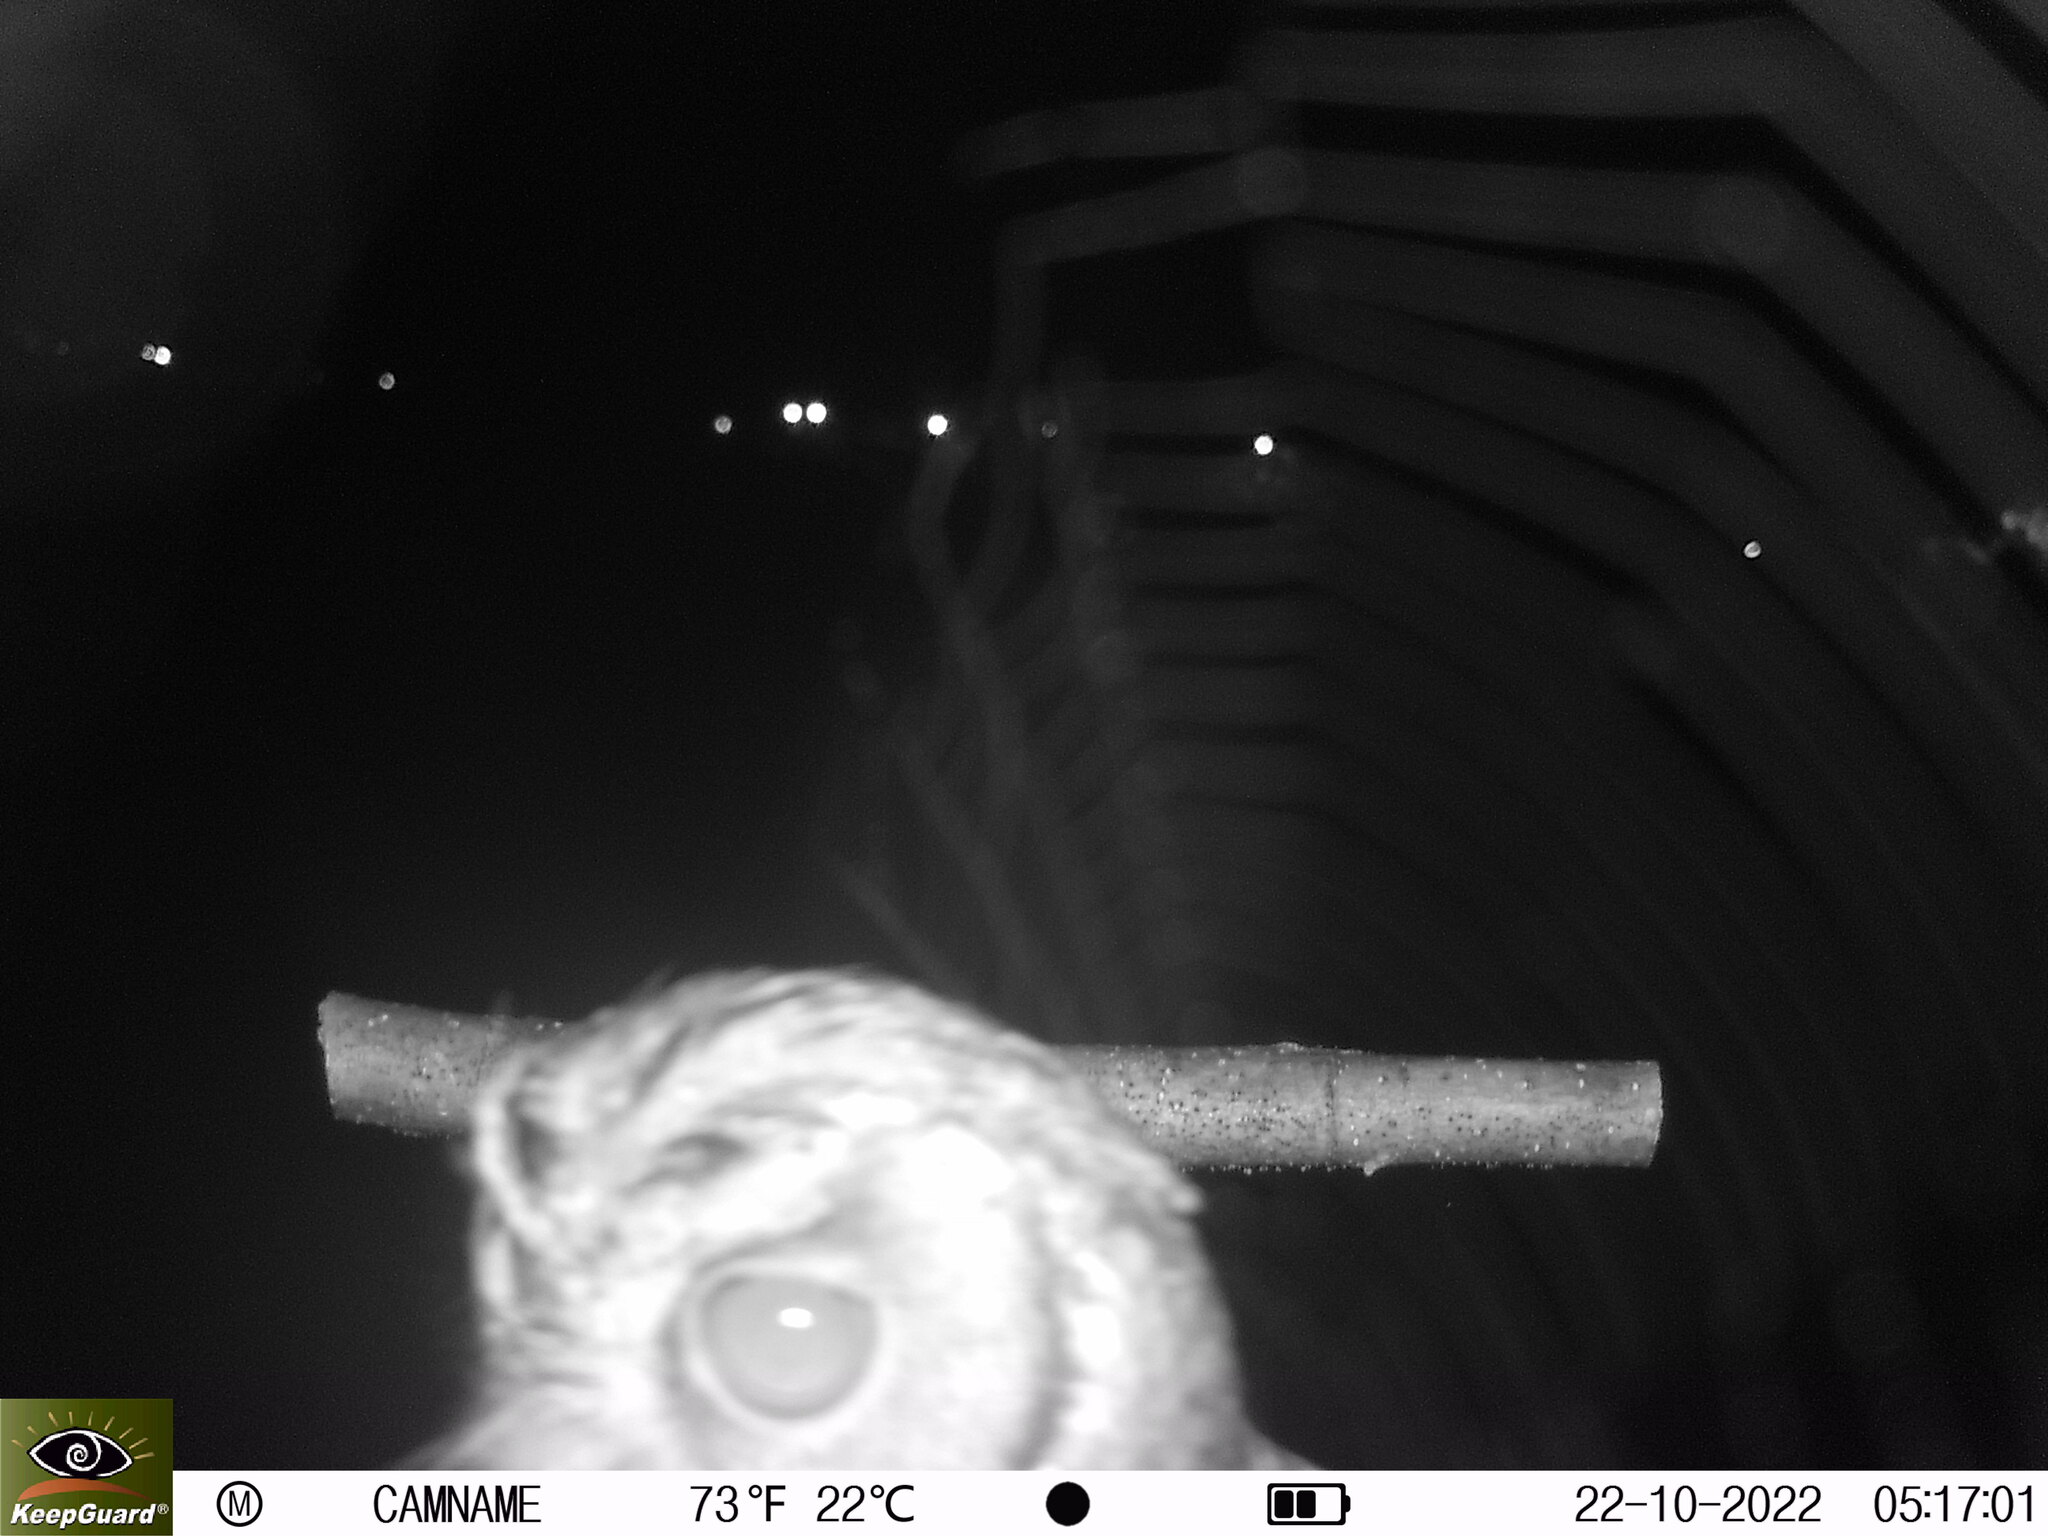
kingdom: Animalia
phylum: Chordata
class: Aves
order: Strigiformes
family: Strigidae
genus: Otus
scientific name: Otus lettia
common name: Collared scops owl
